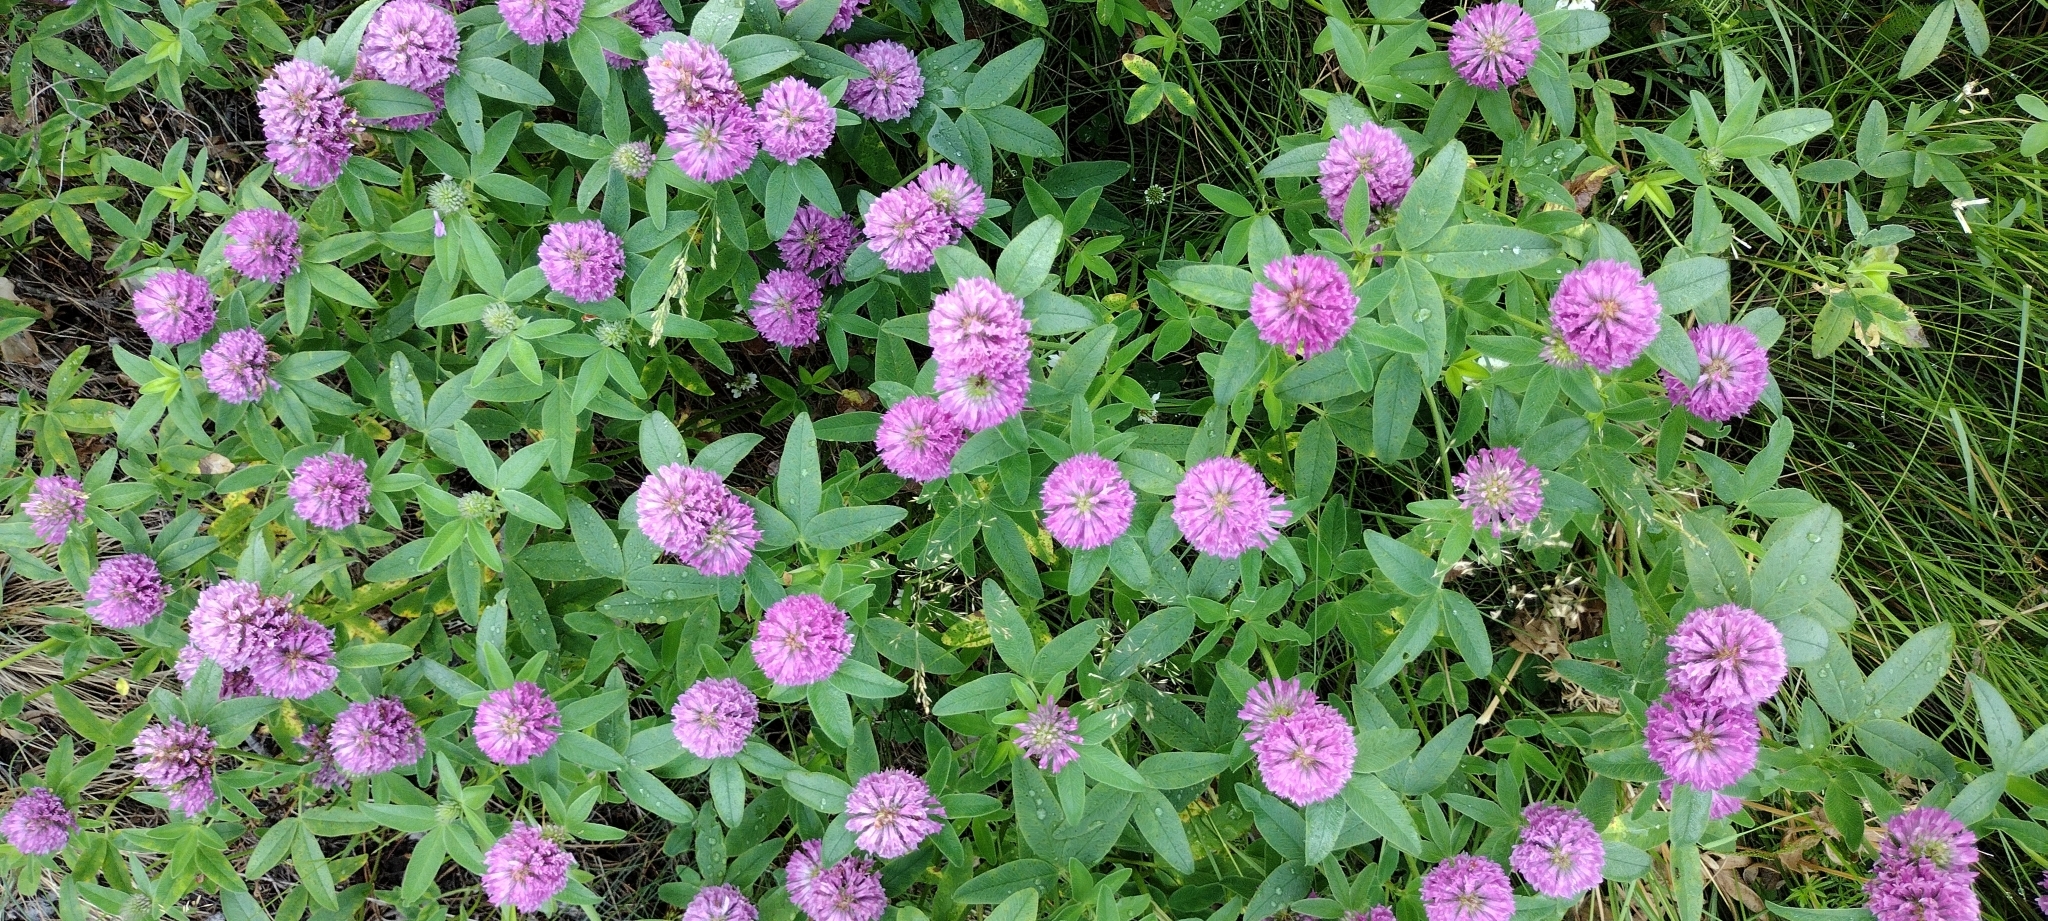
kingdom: Plantae
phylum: Tracheophyta
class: Magnoliopsida
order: Fabales
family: Fabaceae
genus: Trifolium
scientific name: Trifolium medium
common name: Zigzag clover
